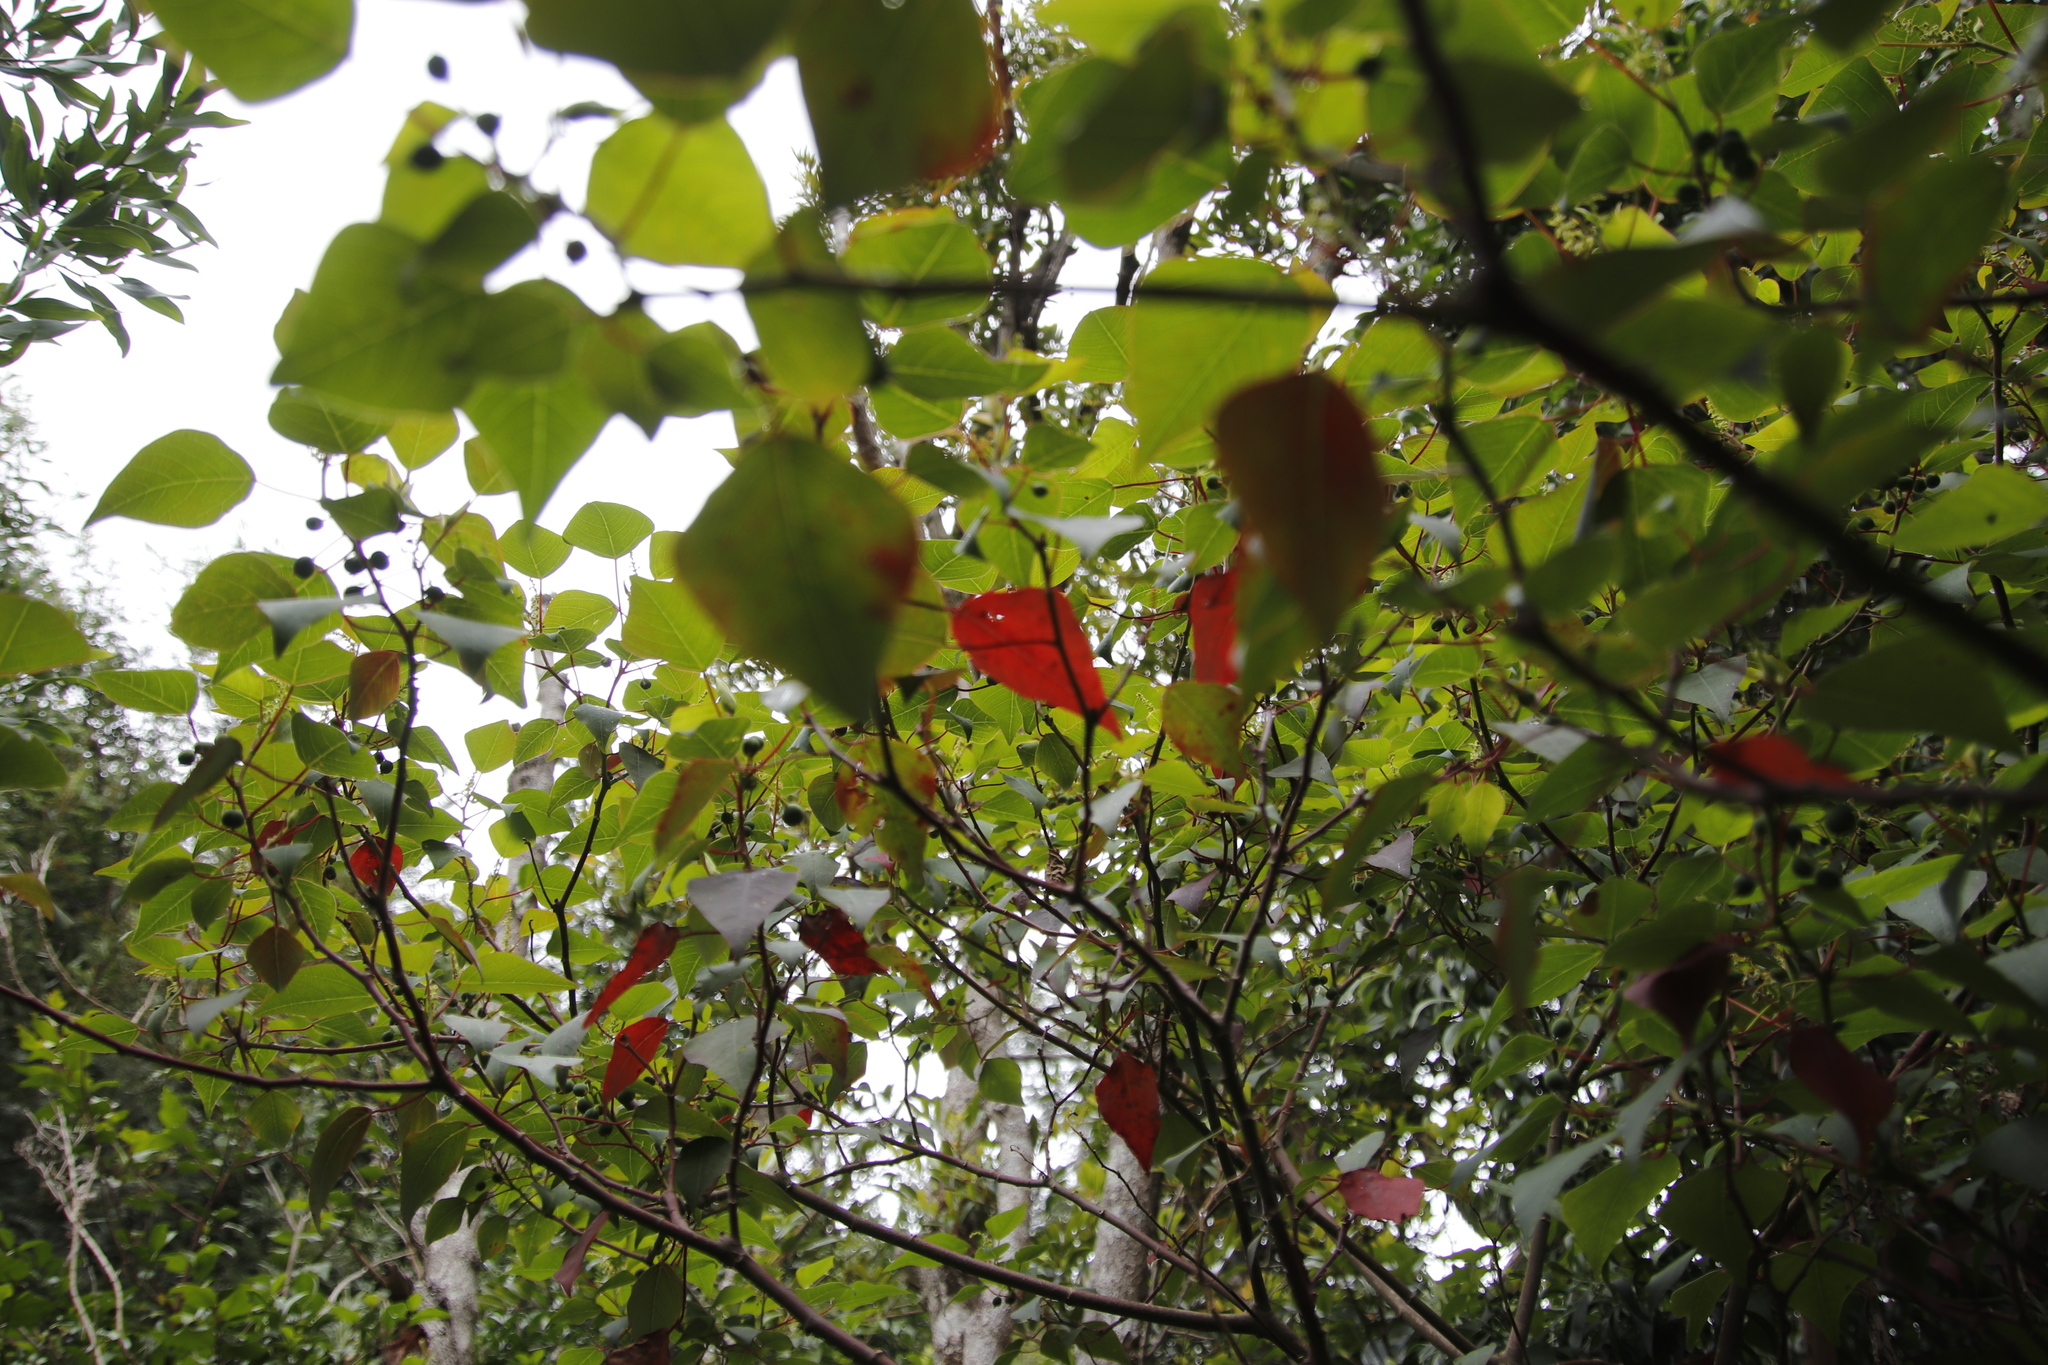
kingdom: Plantae
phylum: Tracheophyta
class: Magnoliopsida
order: Malpighiales
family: Euphorbiaceae
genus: Homalanthus
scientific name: Homalanthus populifolius
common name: Queensland poplar
